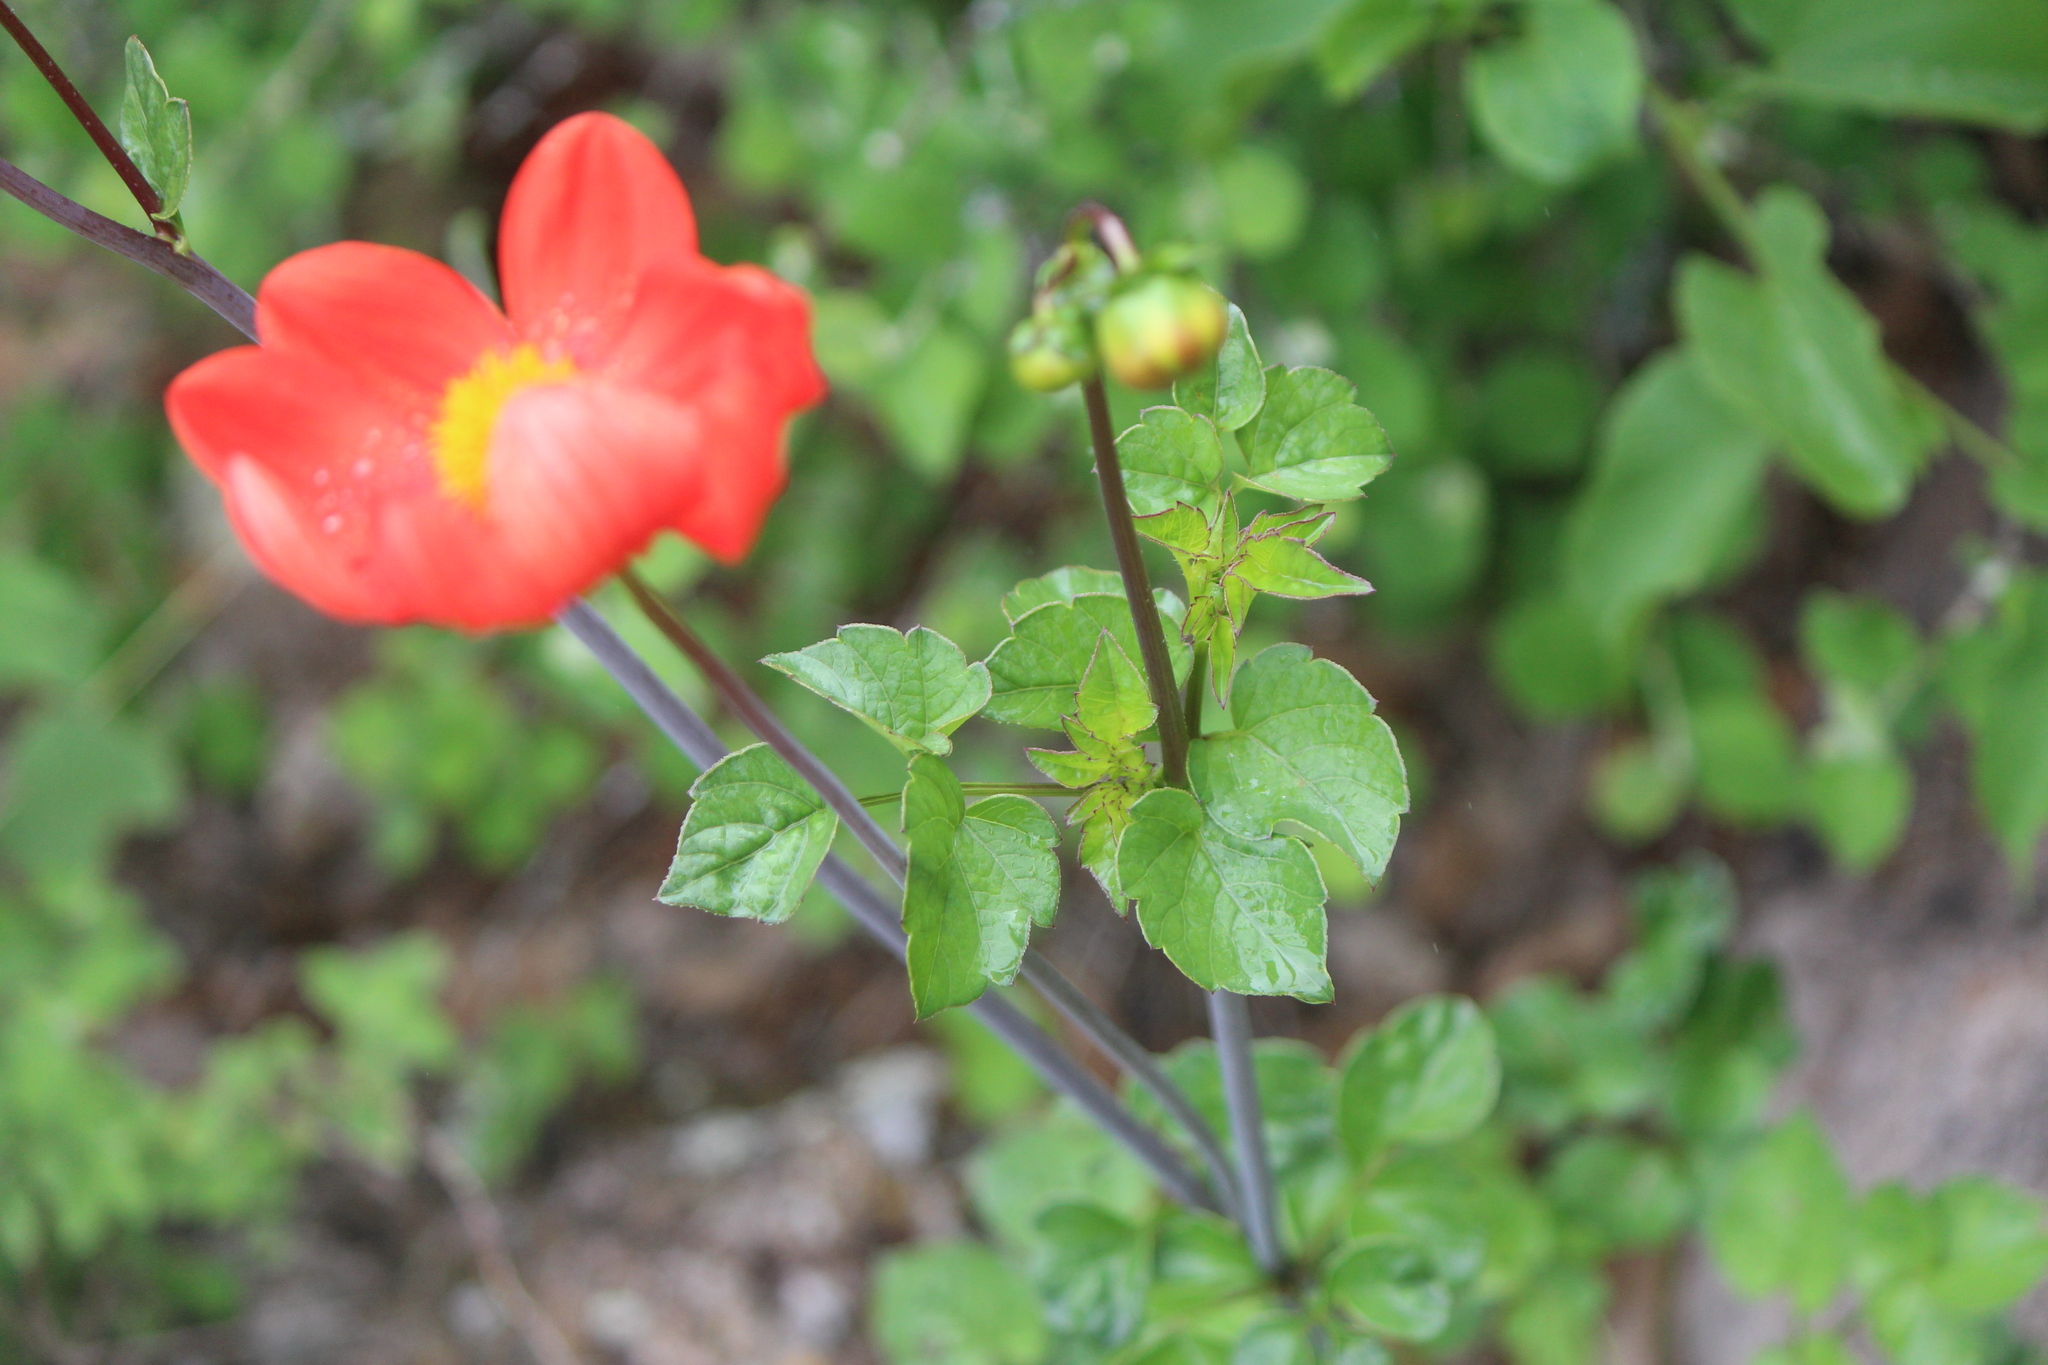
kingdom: Plantae
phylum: Tracheophyta
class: Magnoliopsida
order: Asterales
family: Asteraceae
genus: Dahlia
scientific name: Dahlia coccinea
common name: Red dahlia
